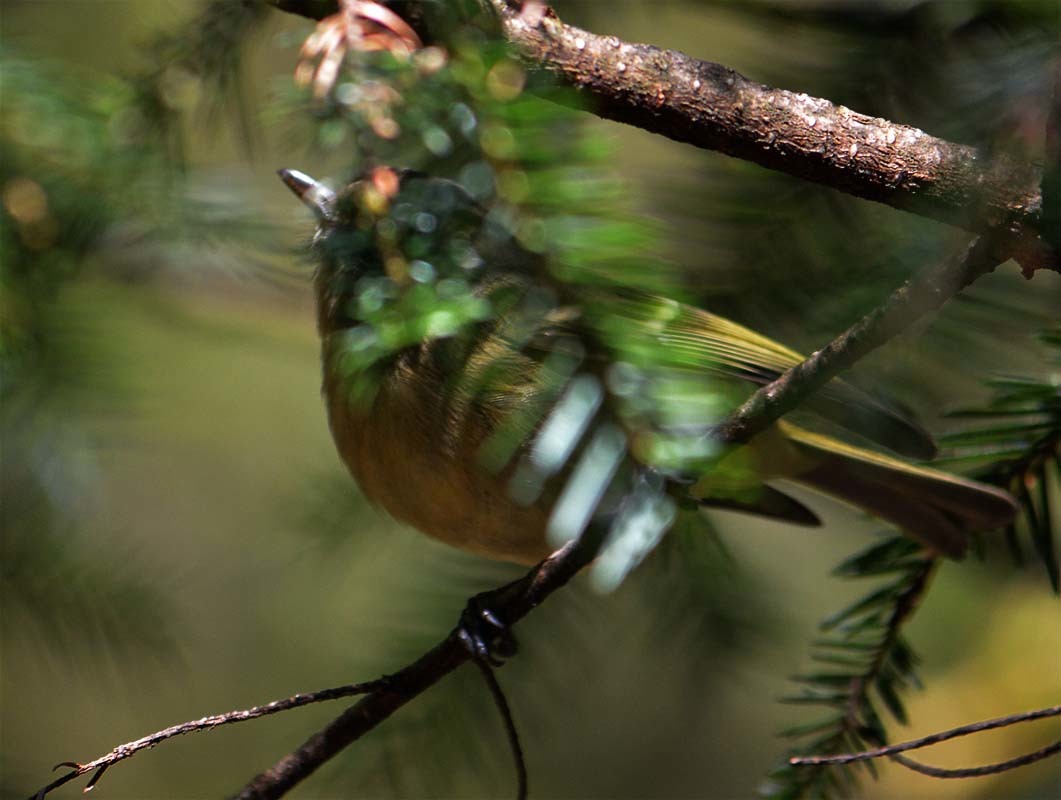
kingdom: Animalia
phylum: Chordata
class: Aves
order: Passeriformes
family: Vireonidae
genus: Vireo
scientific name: Vireo huttoni
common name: Hutton's vireo
